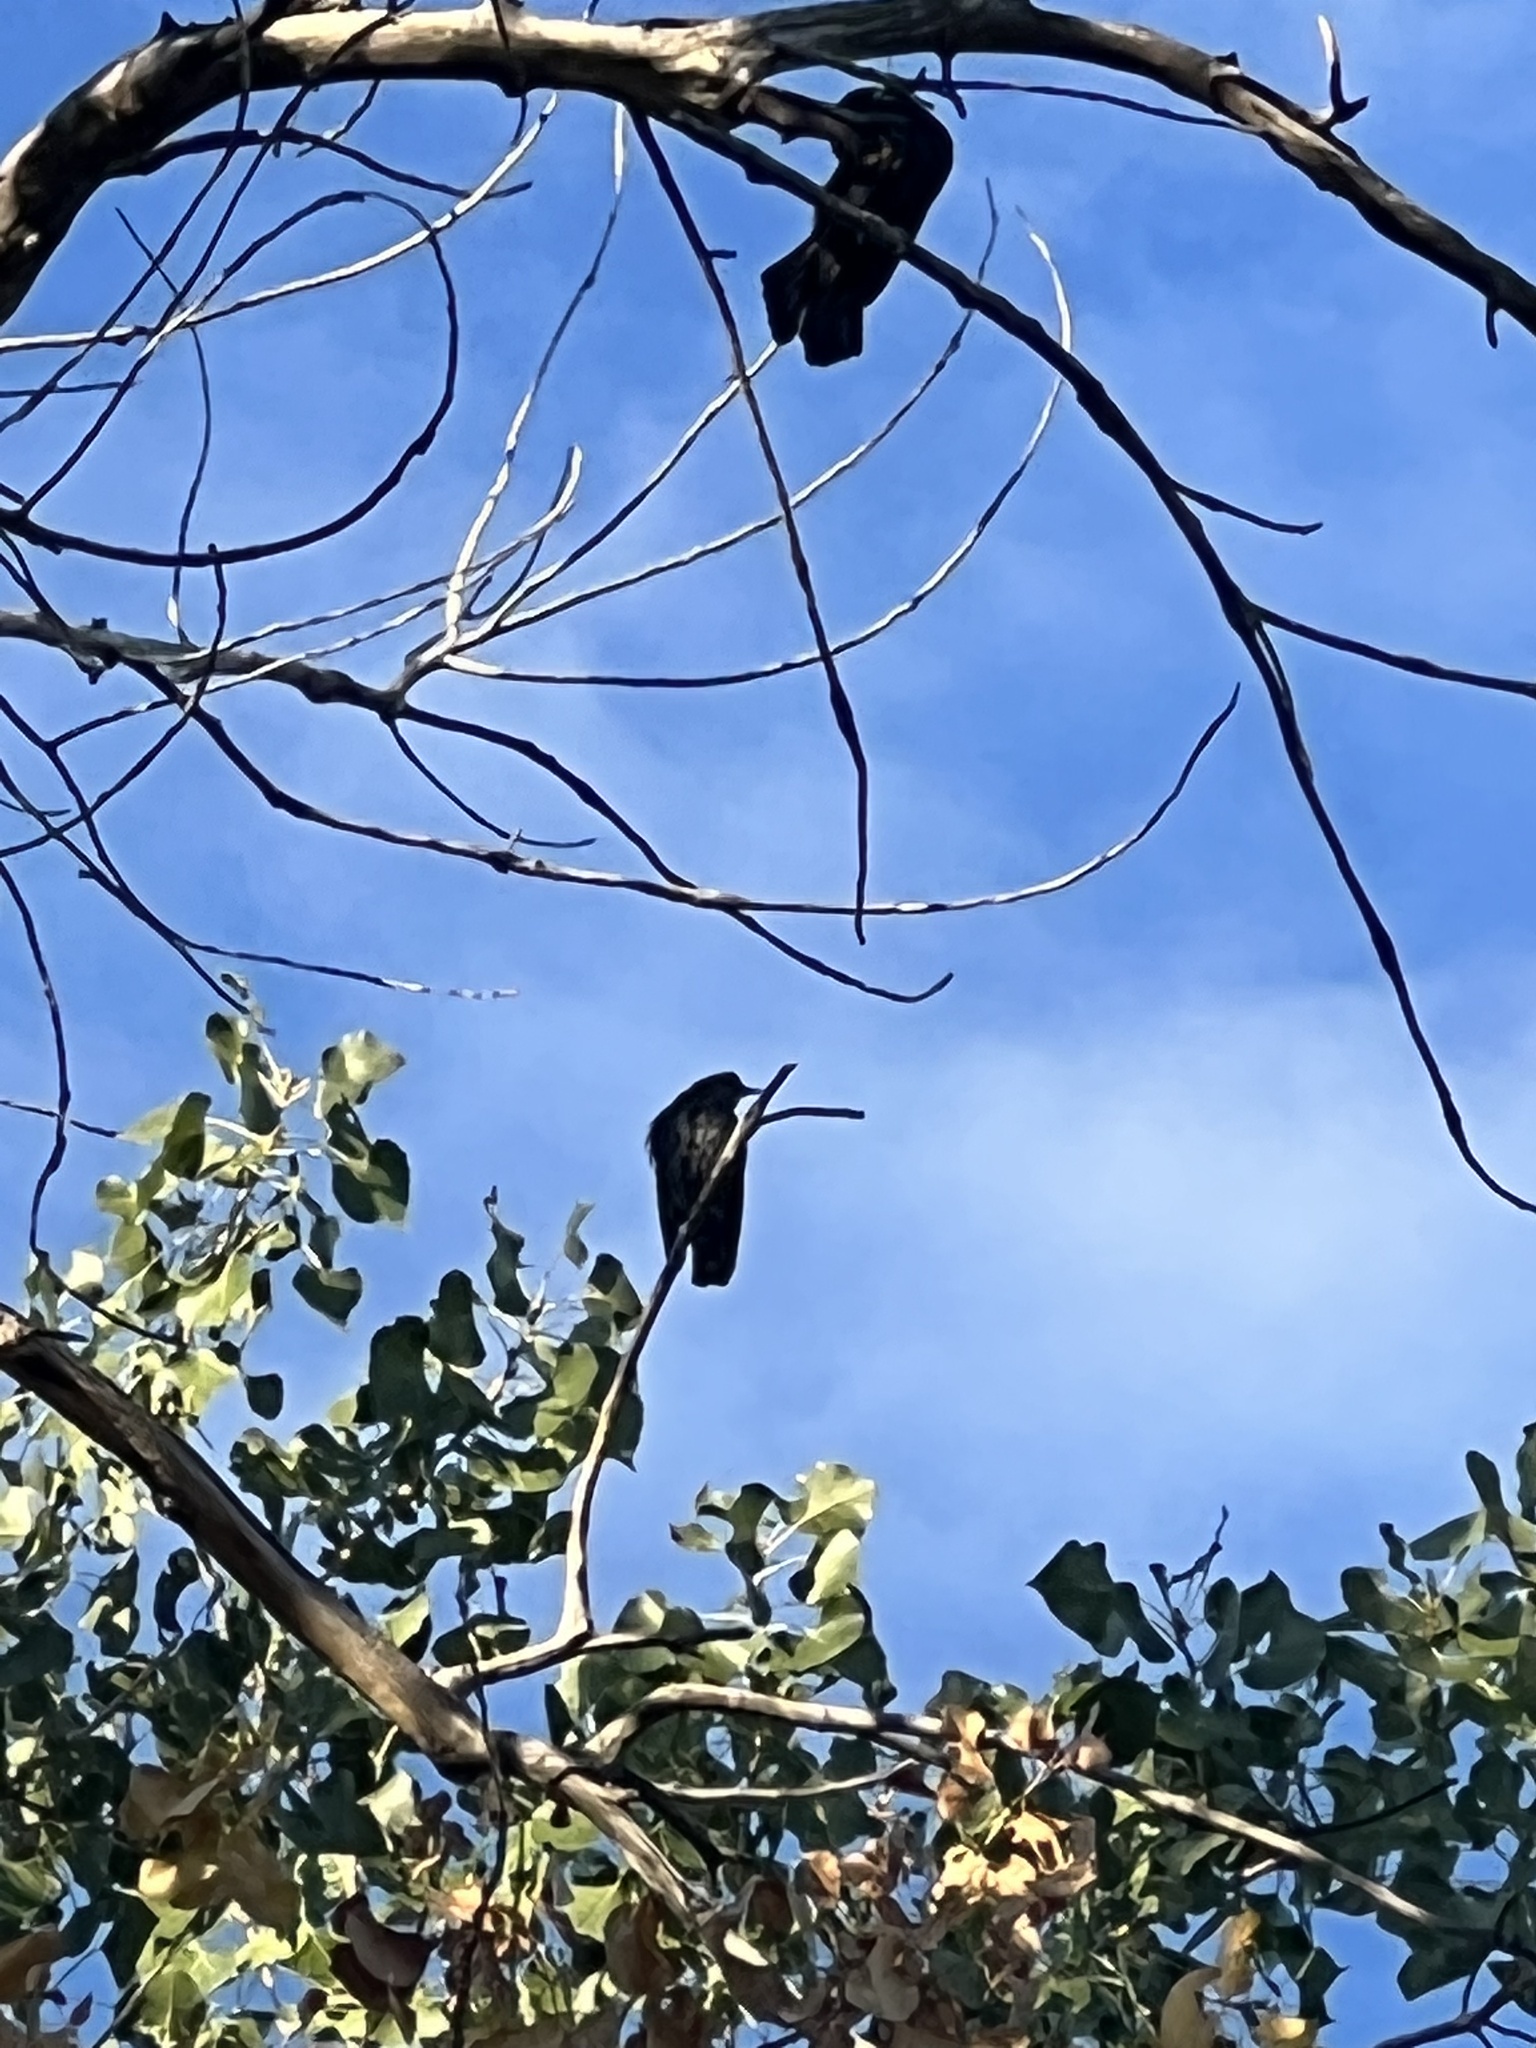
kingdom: Animalia
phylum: Chordata
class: Aves
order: Passeriformes
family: Sturnidae
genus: Sturnus
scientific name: Sturnus vulgaris
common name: Common starling
